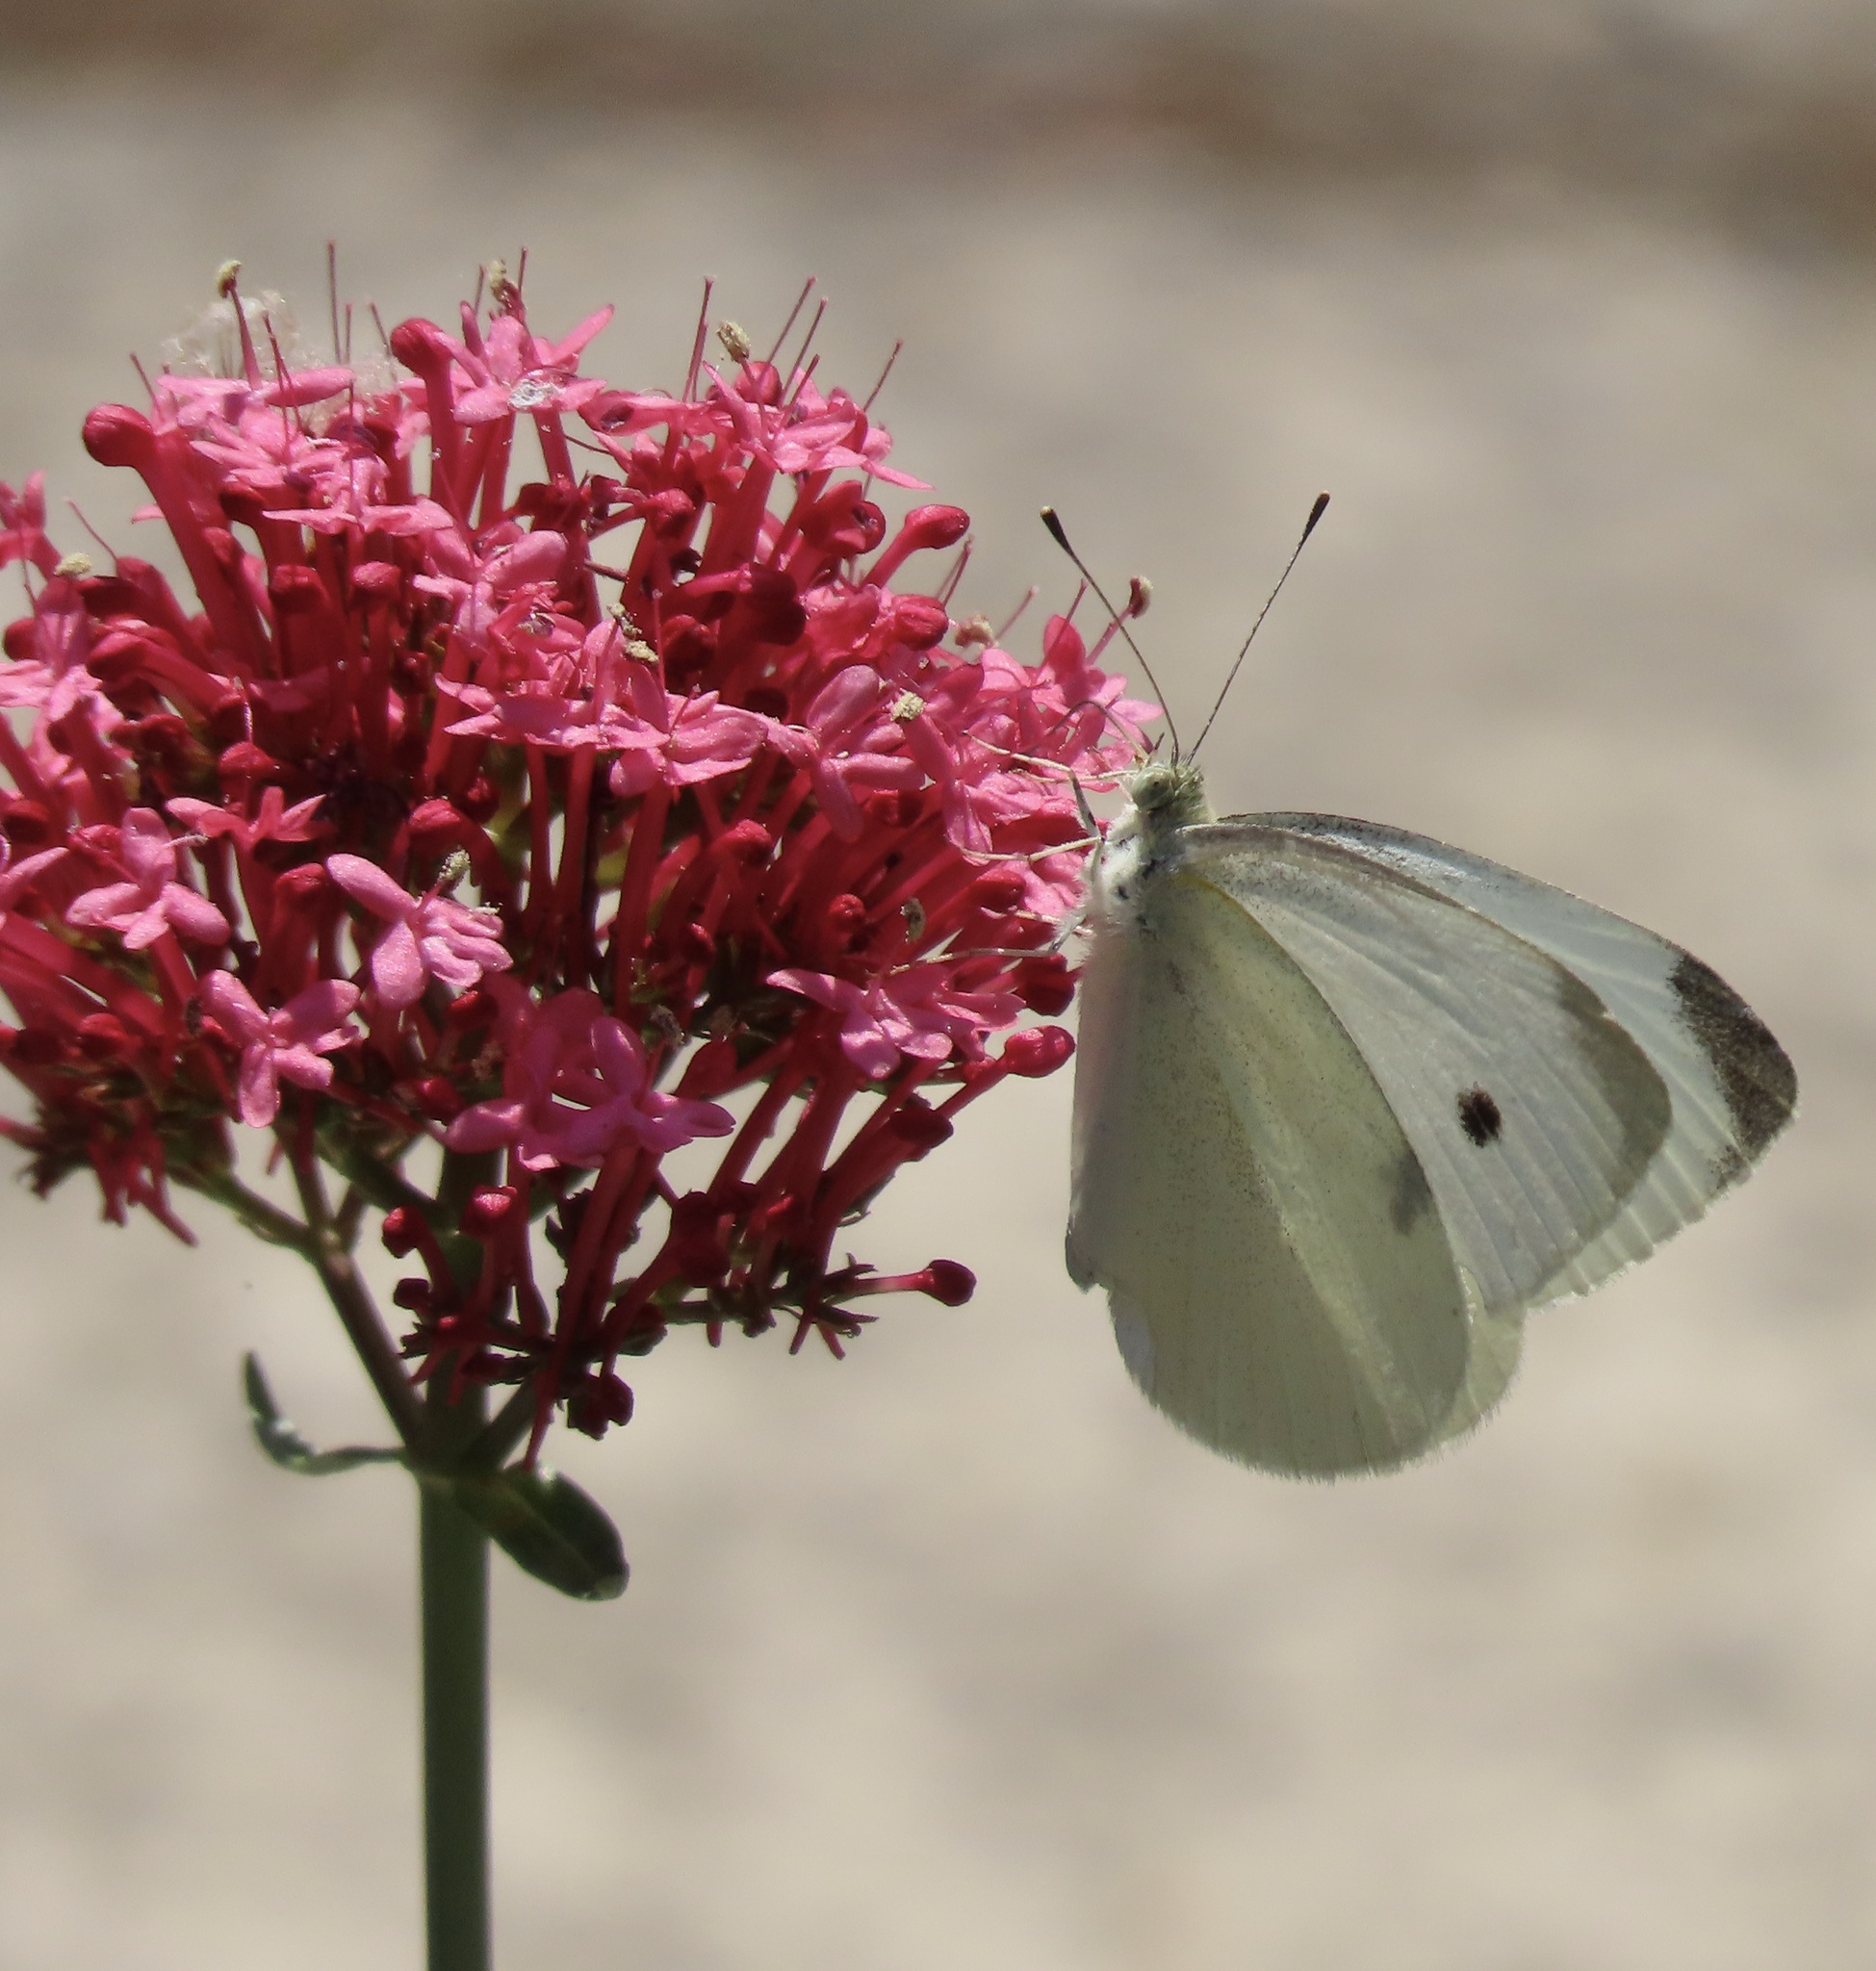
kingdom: Animalia
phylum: Arthropoda
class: Insecta
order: Lepidoptera
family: Pieridae
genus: Pieris
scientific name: Pieris rapae
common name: Small white
